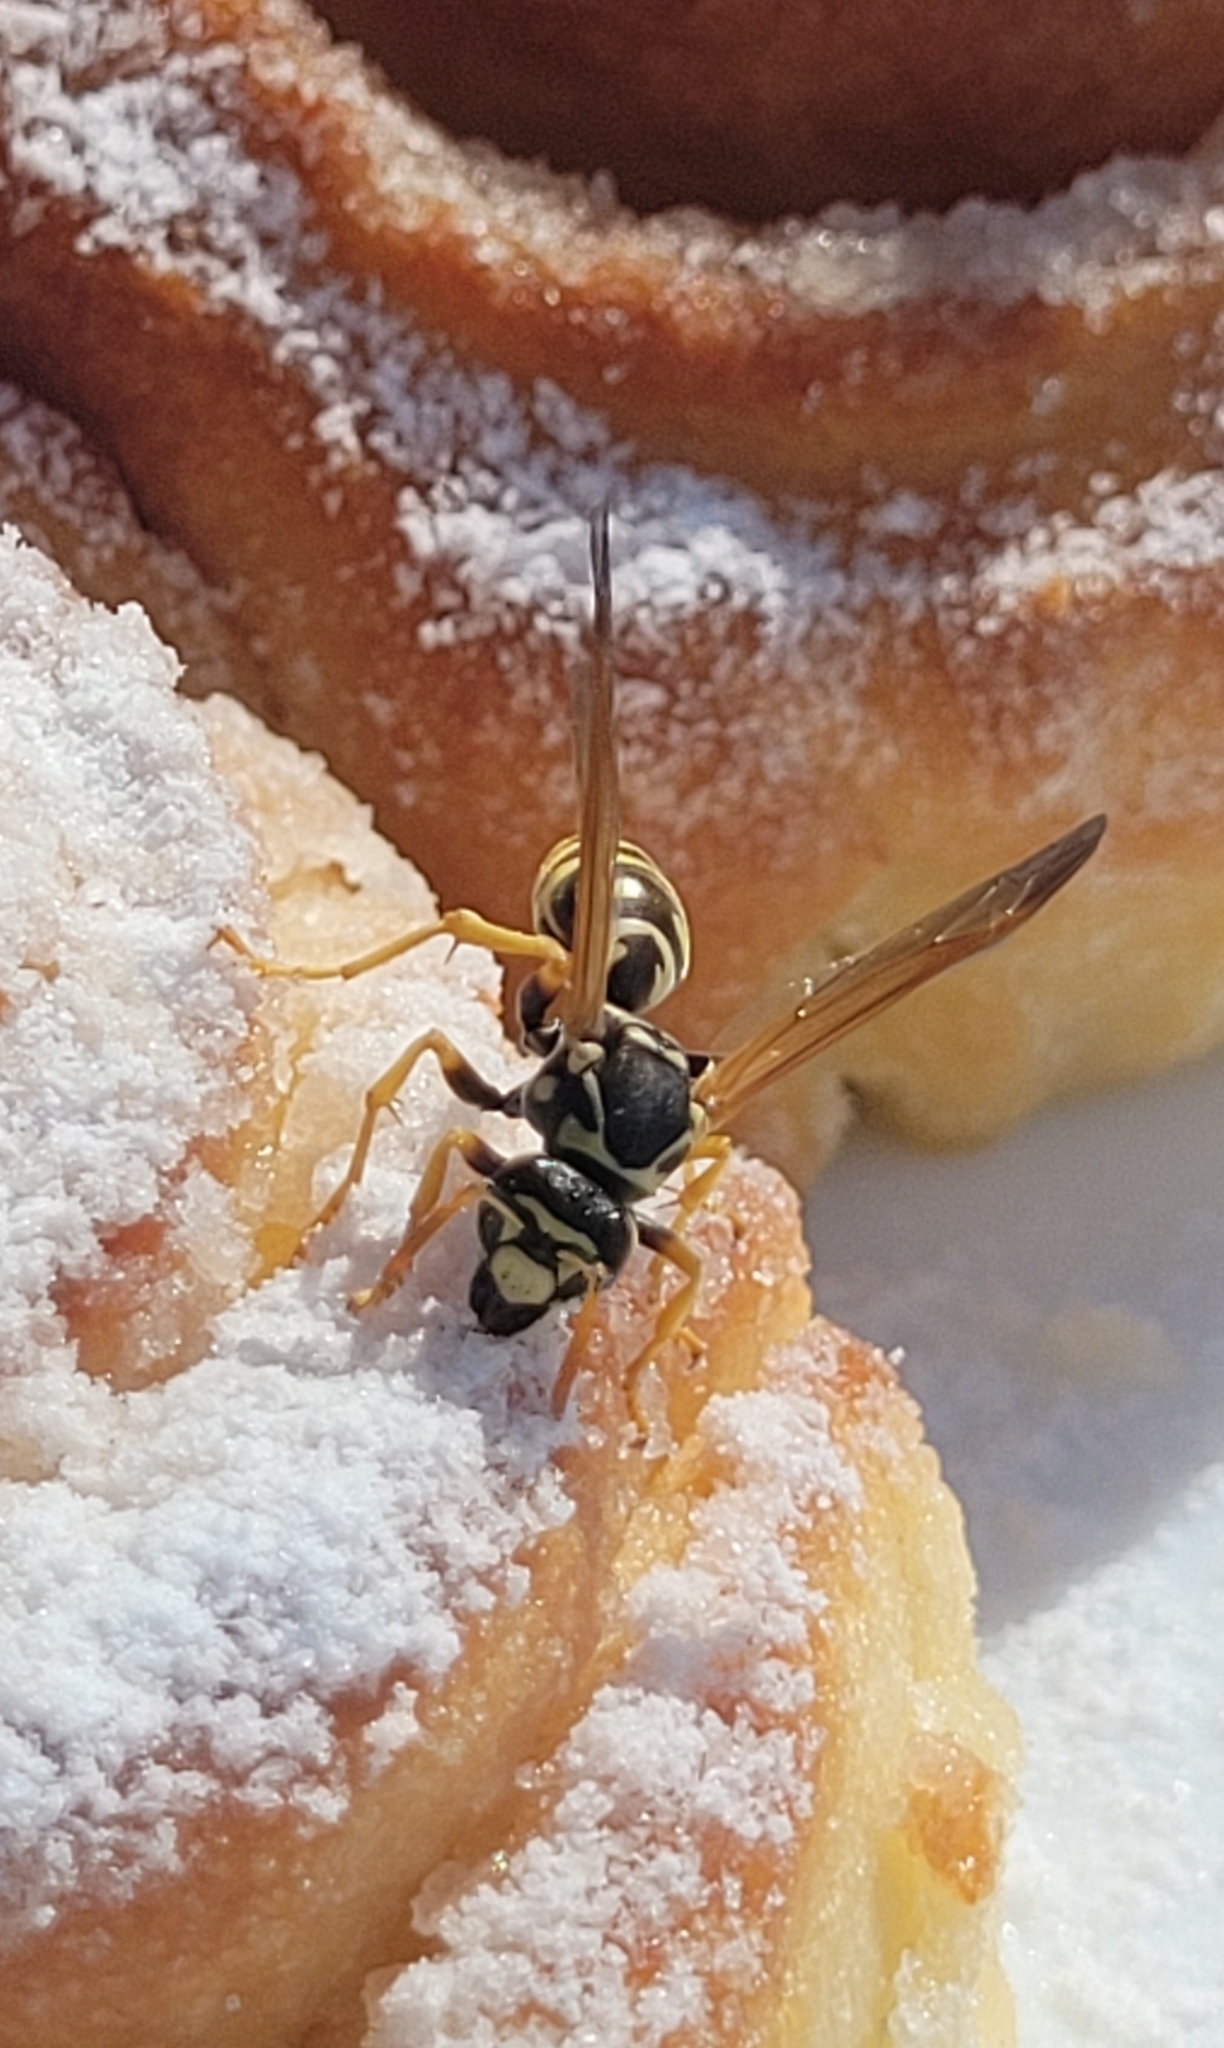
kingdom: Animalia
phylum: Arthropoda
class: Insecta
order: Hymenoptera
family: Eumenidae
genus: Polistes
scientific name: Polistes dominula
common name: Paper wasp
